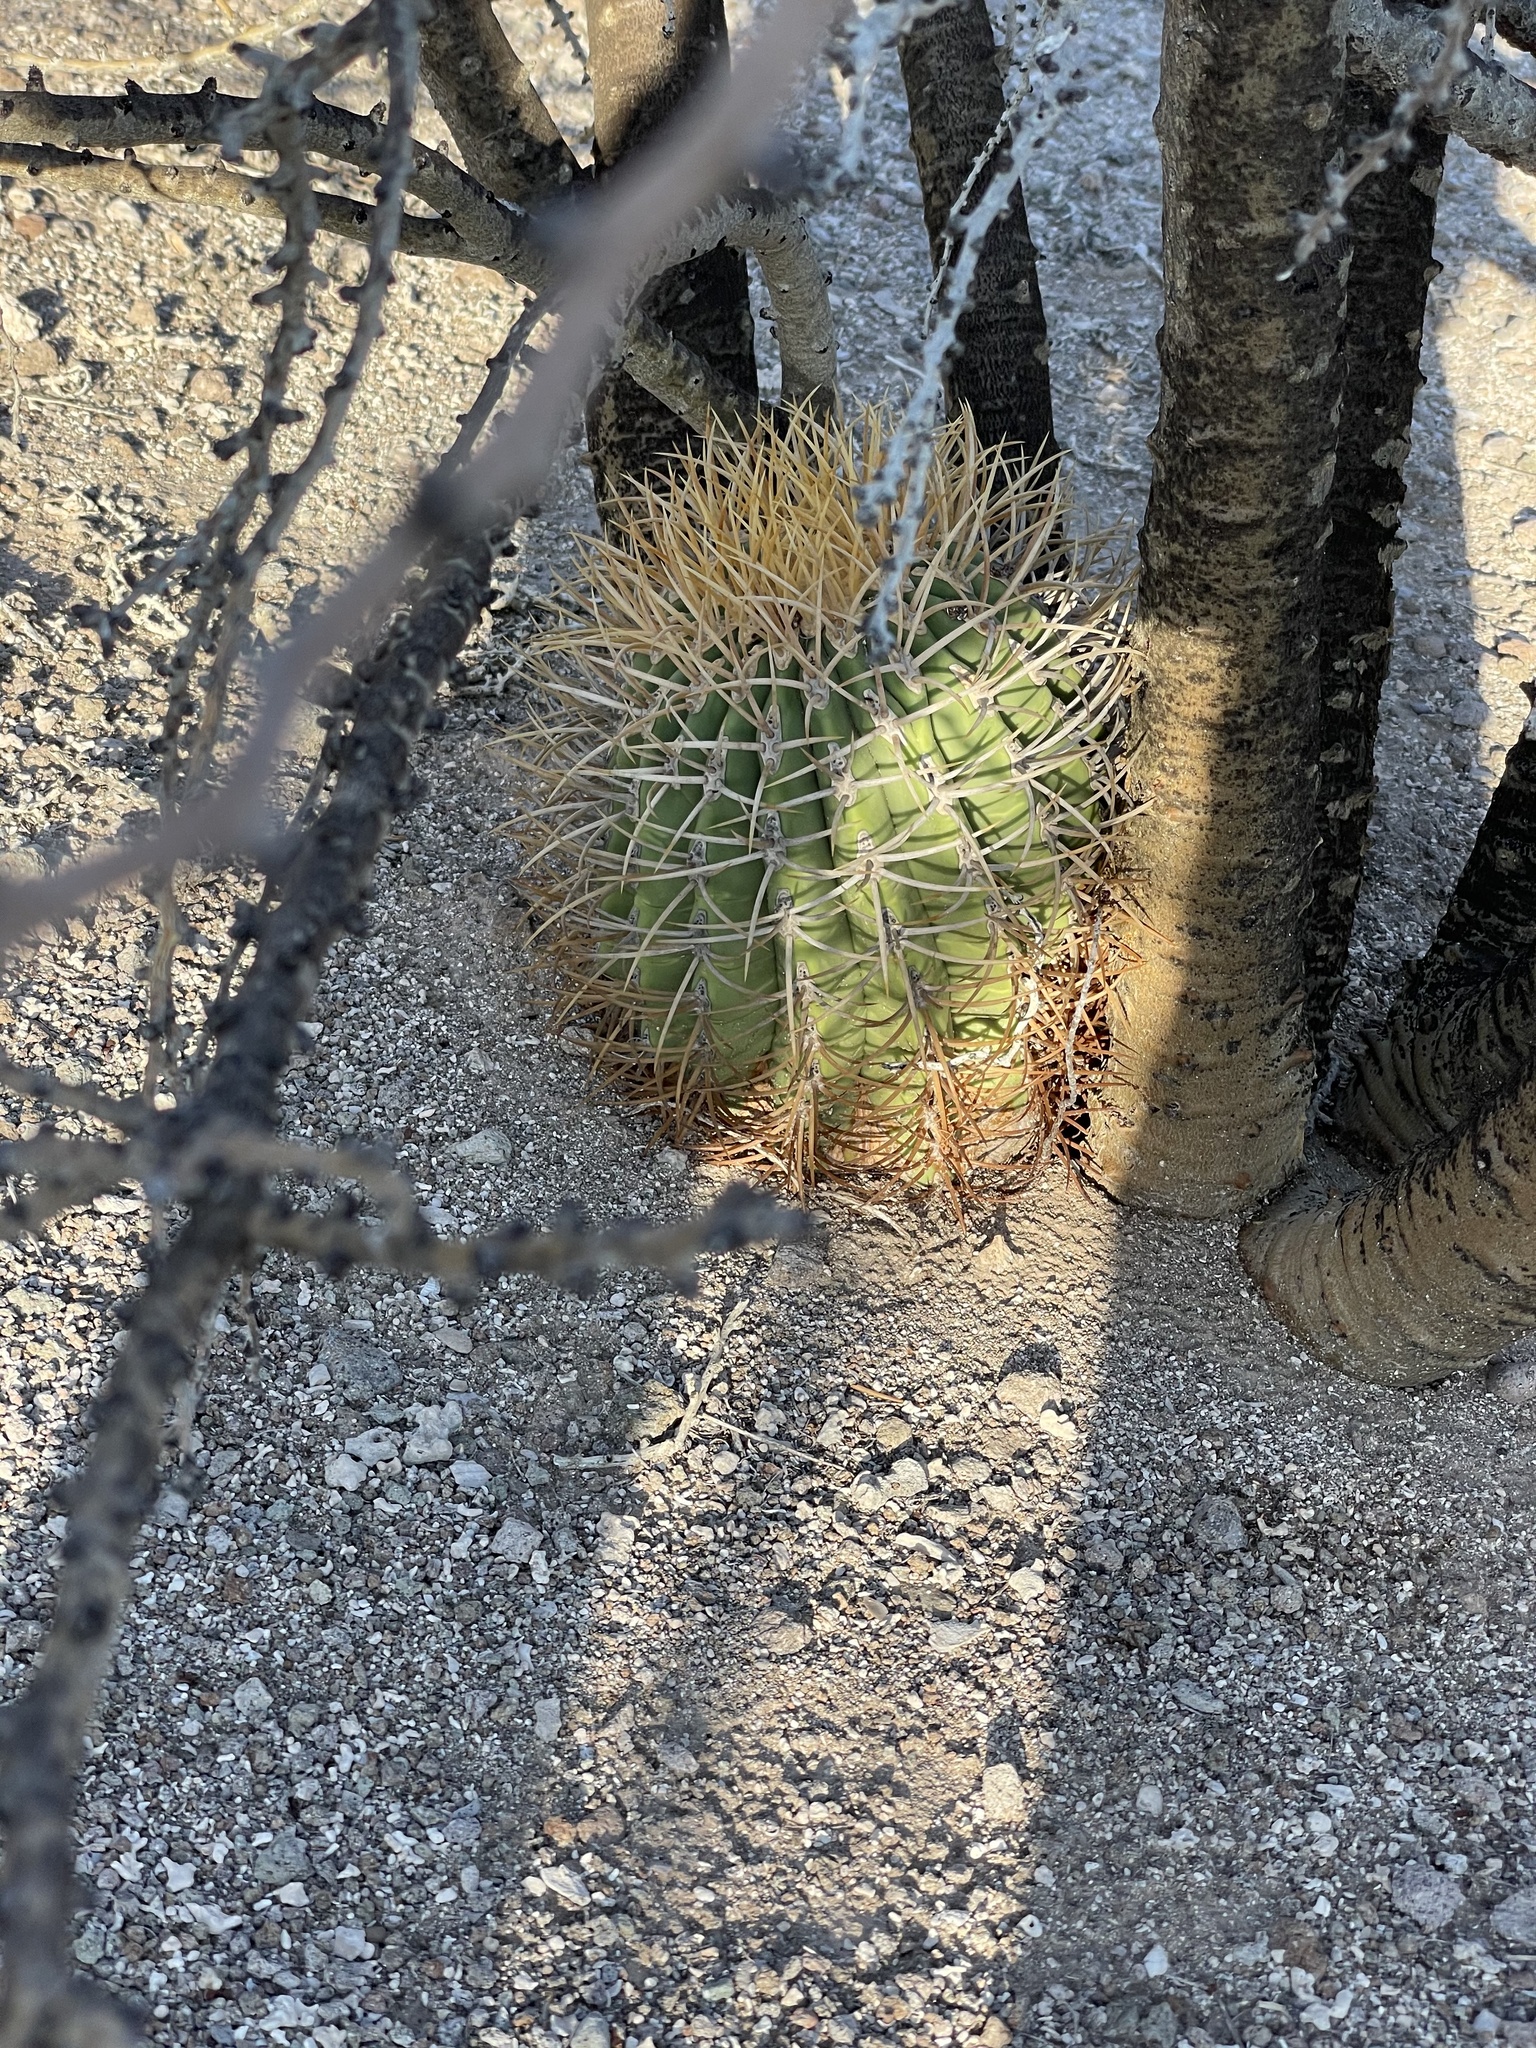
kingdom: Plantae
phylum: Tracheophyta
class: Magnoliopsida
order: Caryophyllales
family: Cactaceae
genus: Ferocactus
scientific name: Ferocactus diguetii
